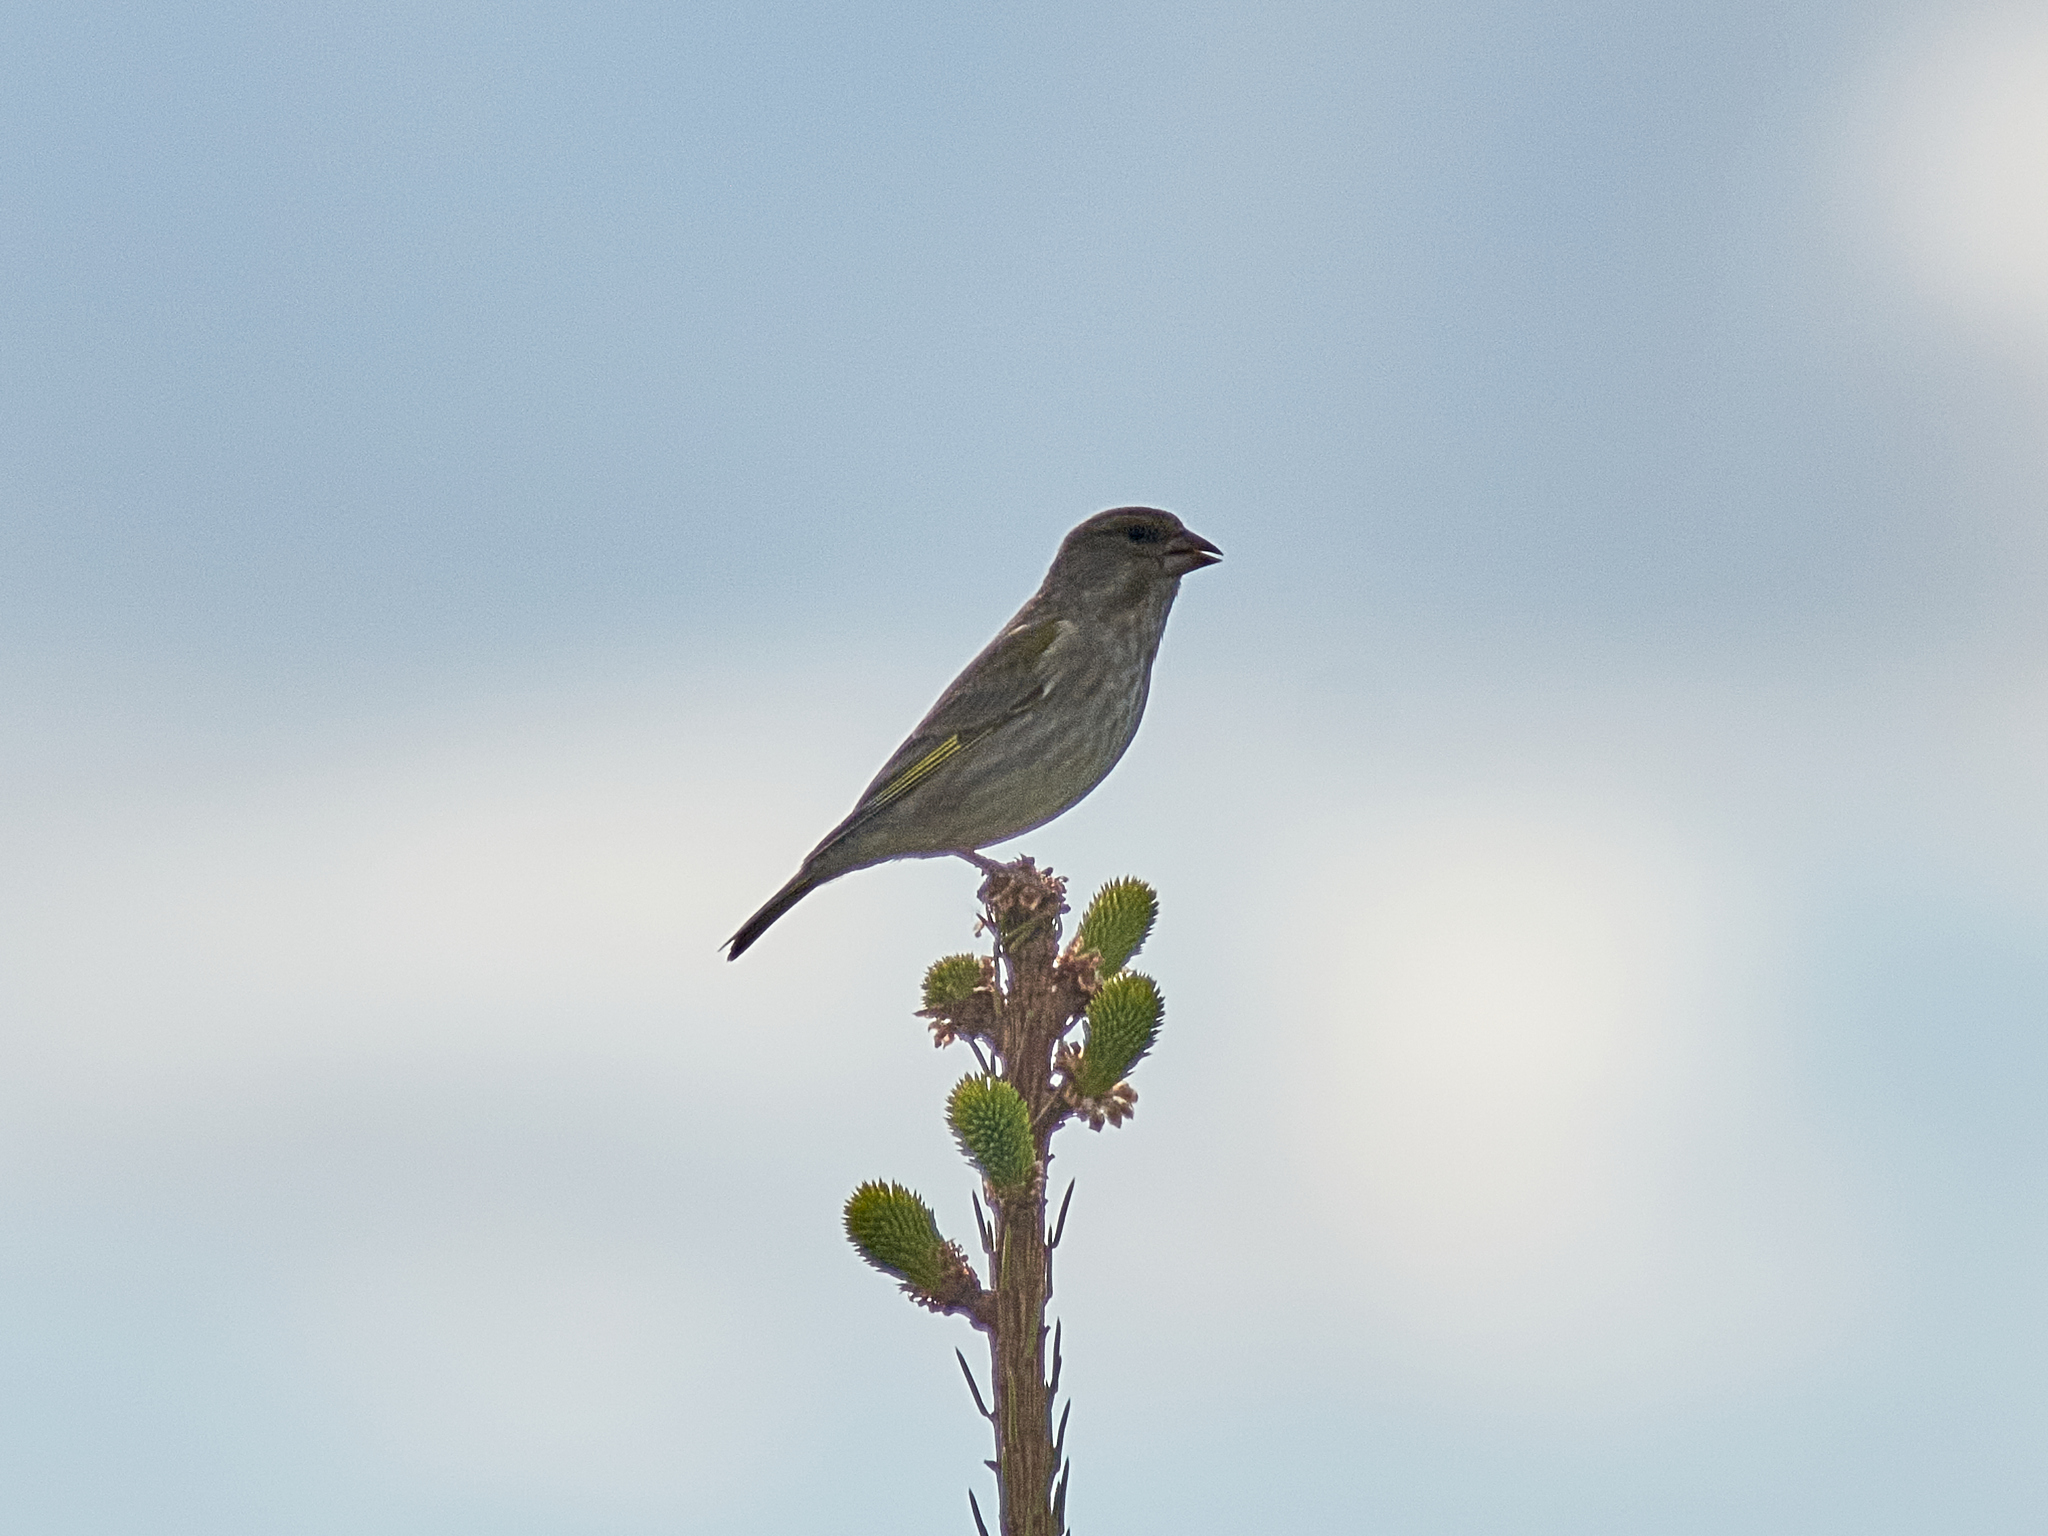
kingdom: Plantae
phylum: Tracheophyta
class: Liliopsida
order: Poales
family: Poaceae
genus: Chloris
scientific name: Chloris chloris
